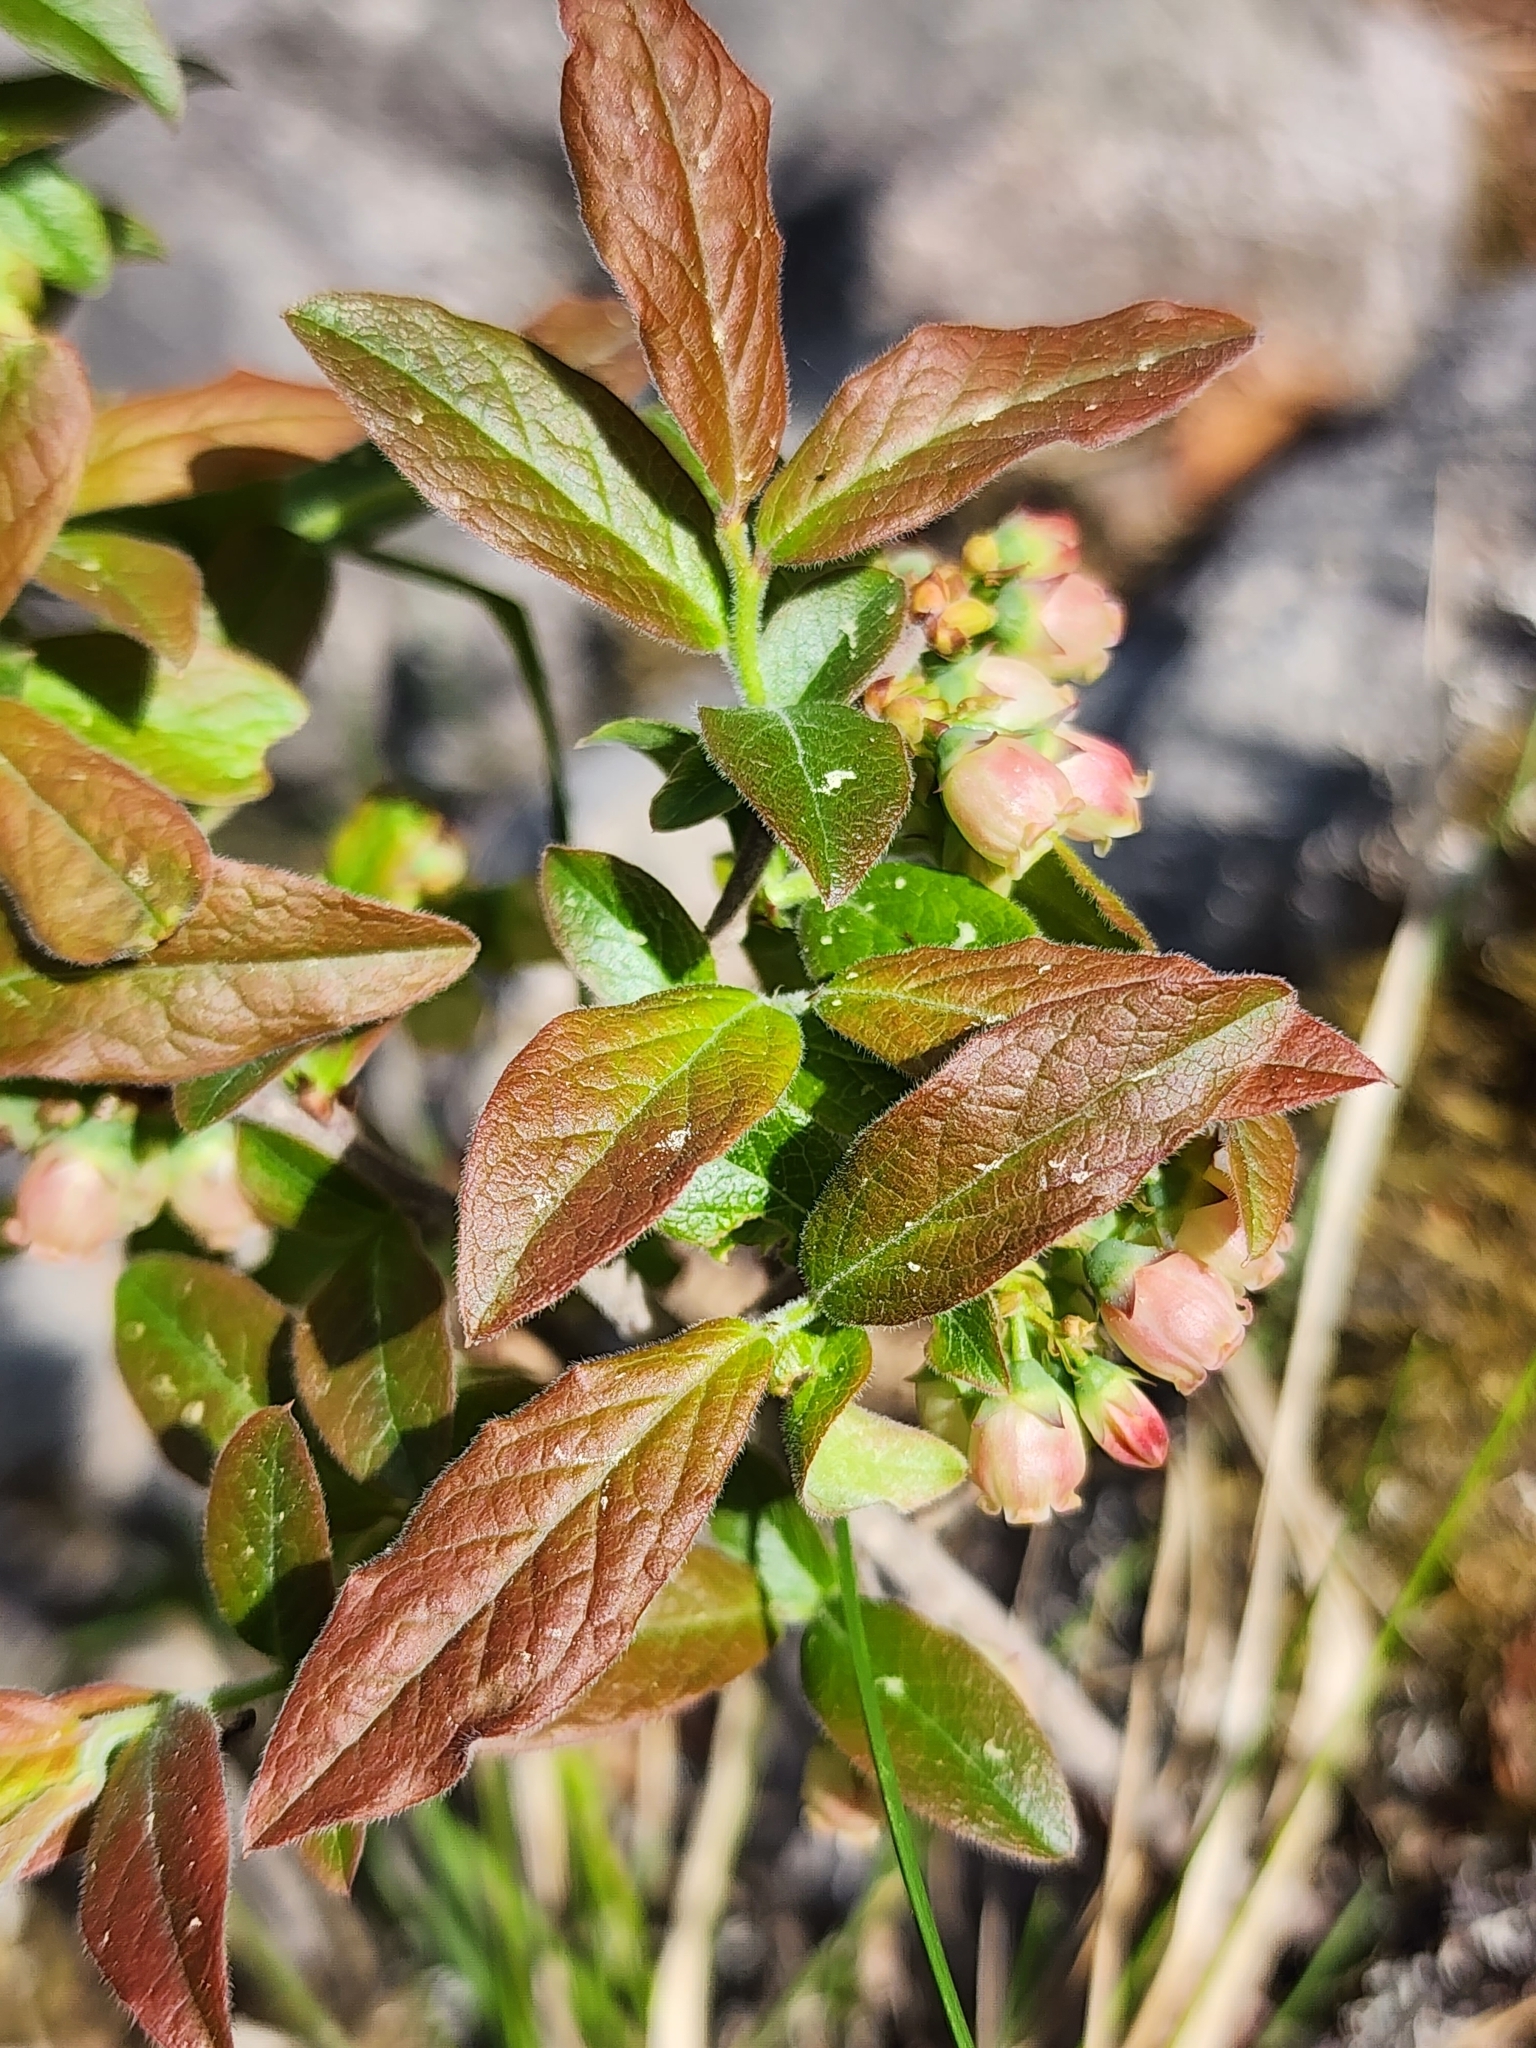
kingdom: Plantae
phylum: Tracheophyta
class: Magnoliopsida
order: Ericales
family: Ericaceae
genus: Vaccinium
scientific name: Vaccinium myrtilloides
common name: Canada blueberry
